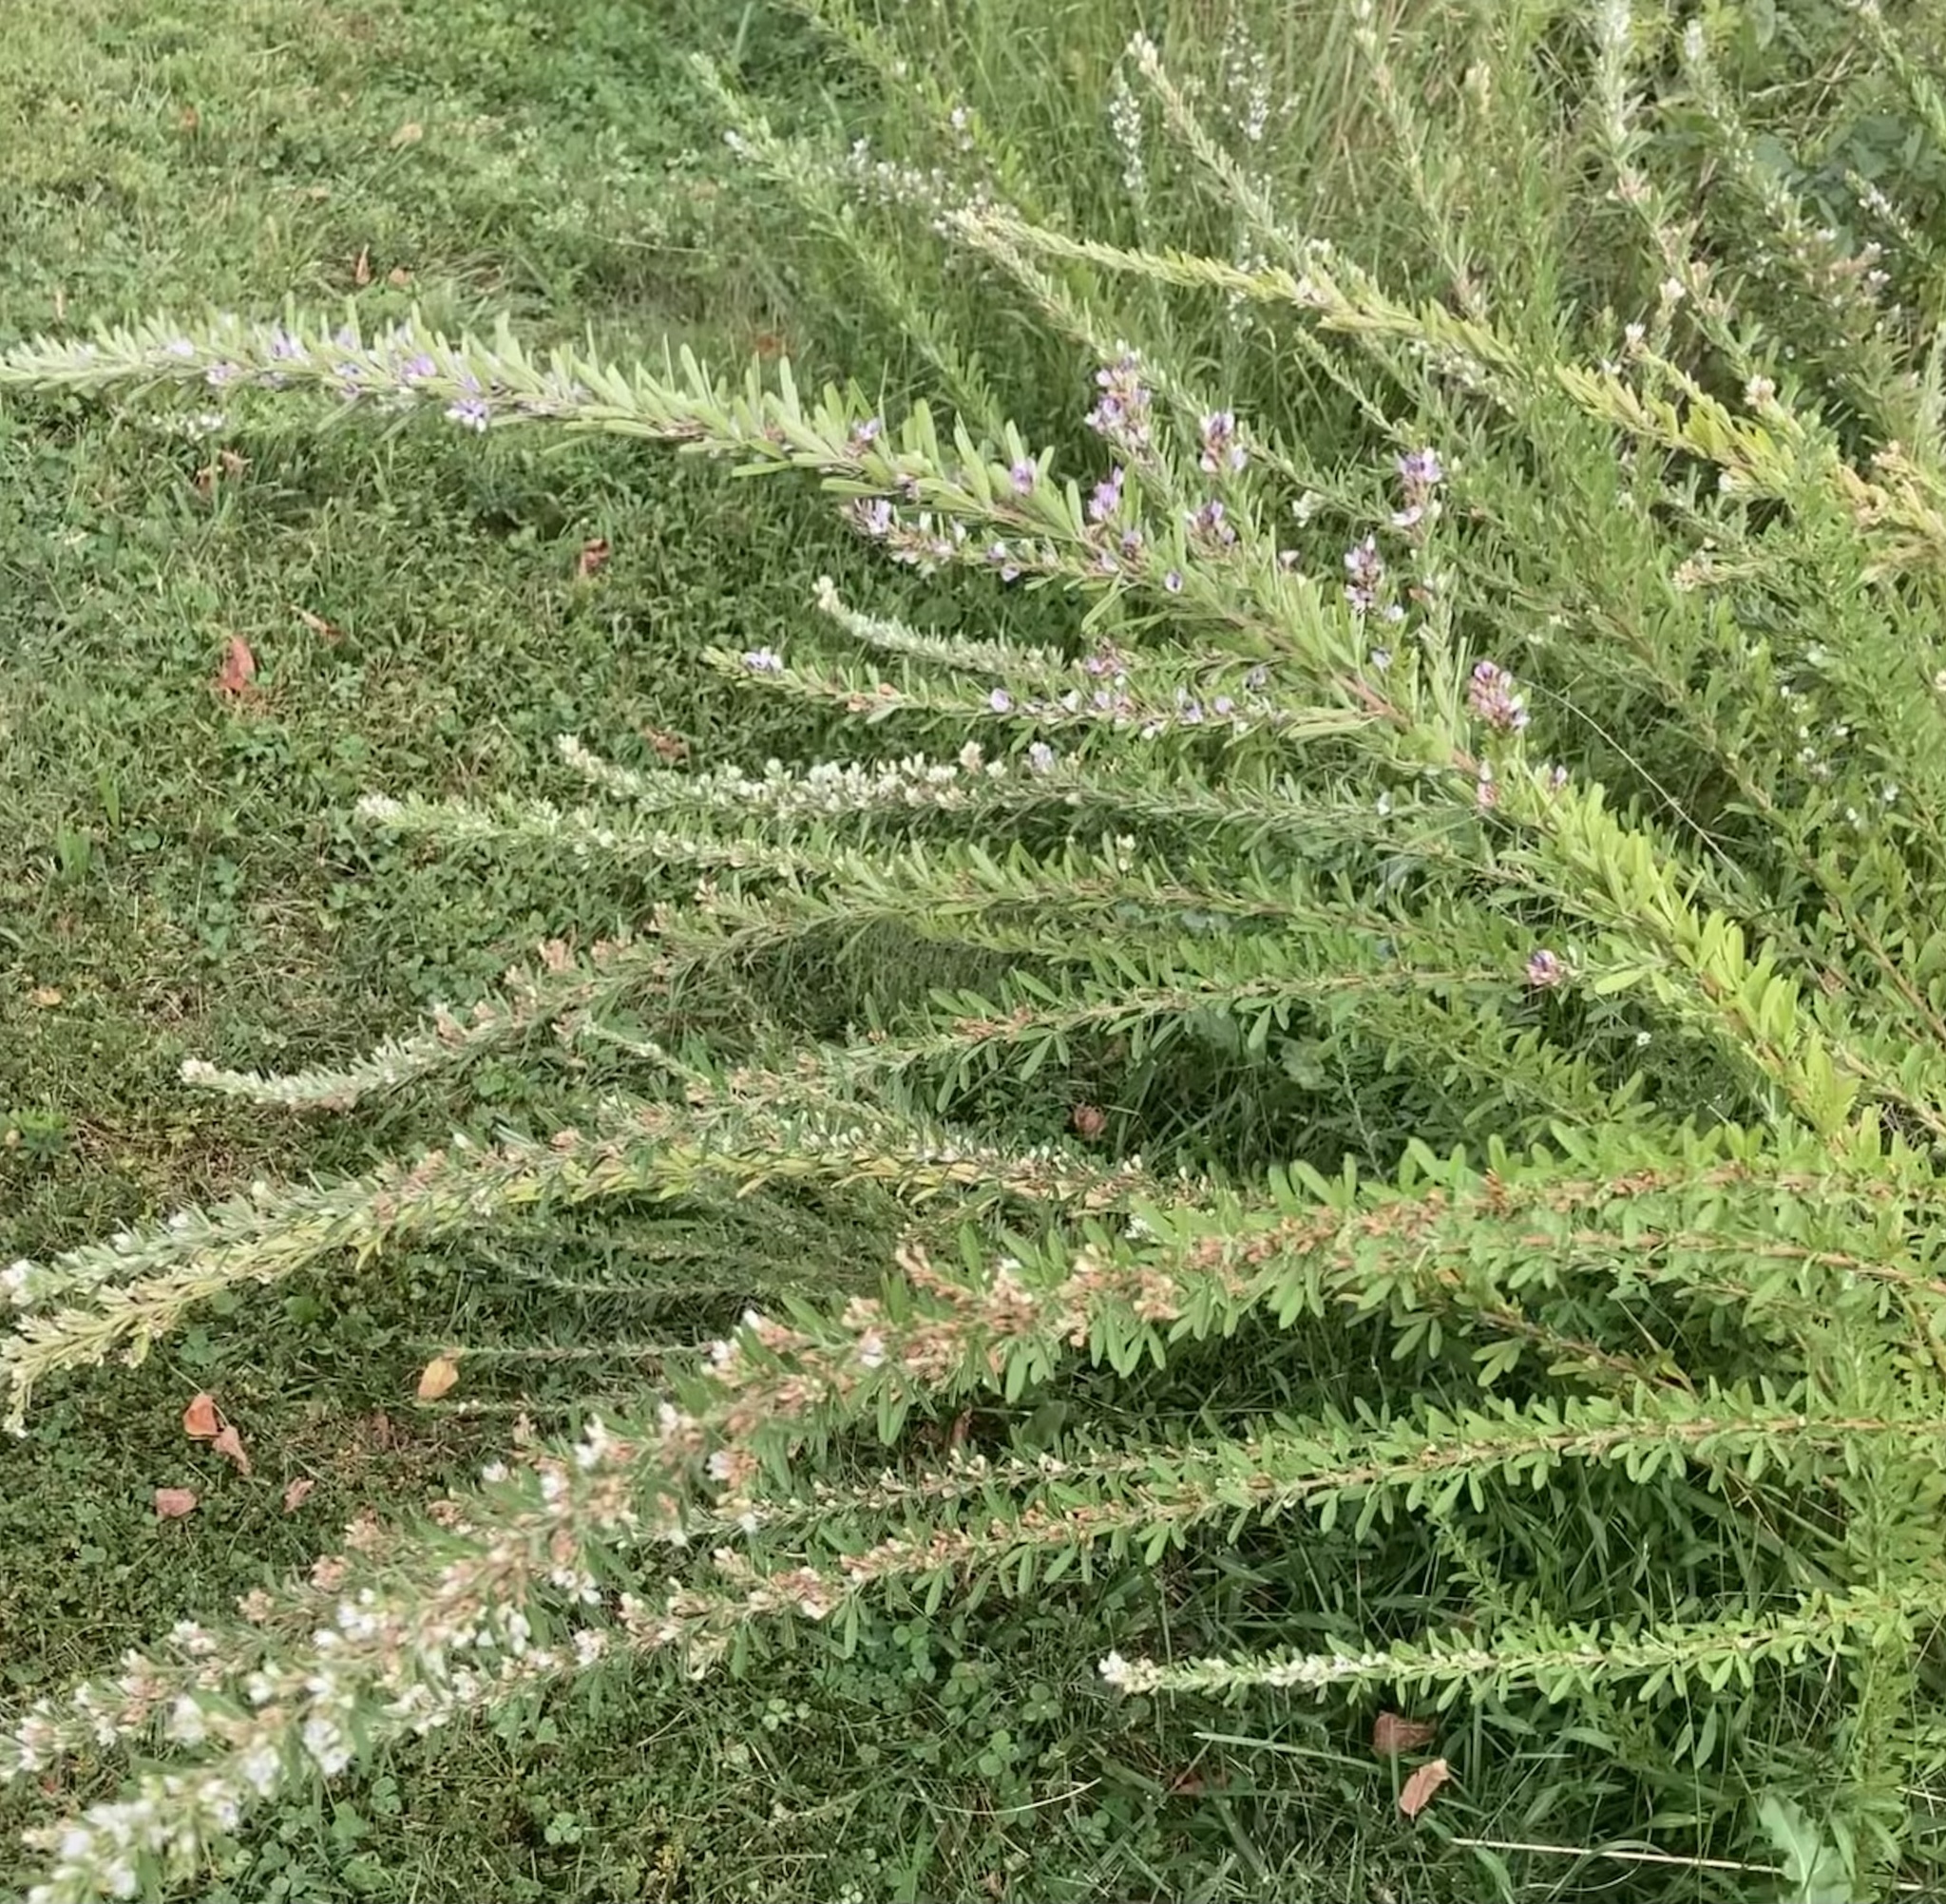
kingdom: Plantae
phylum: Tracheophyta
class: Magnoliopsida
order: Fabales
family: Fabaceae
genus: Lespedeza
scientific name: Lespedeza cuneata
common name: Chinese bush-clover
